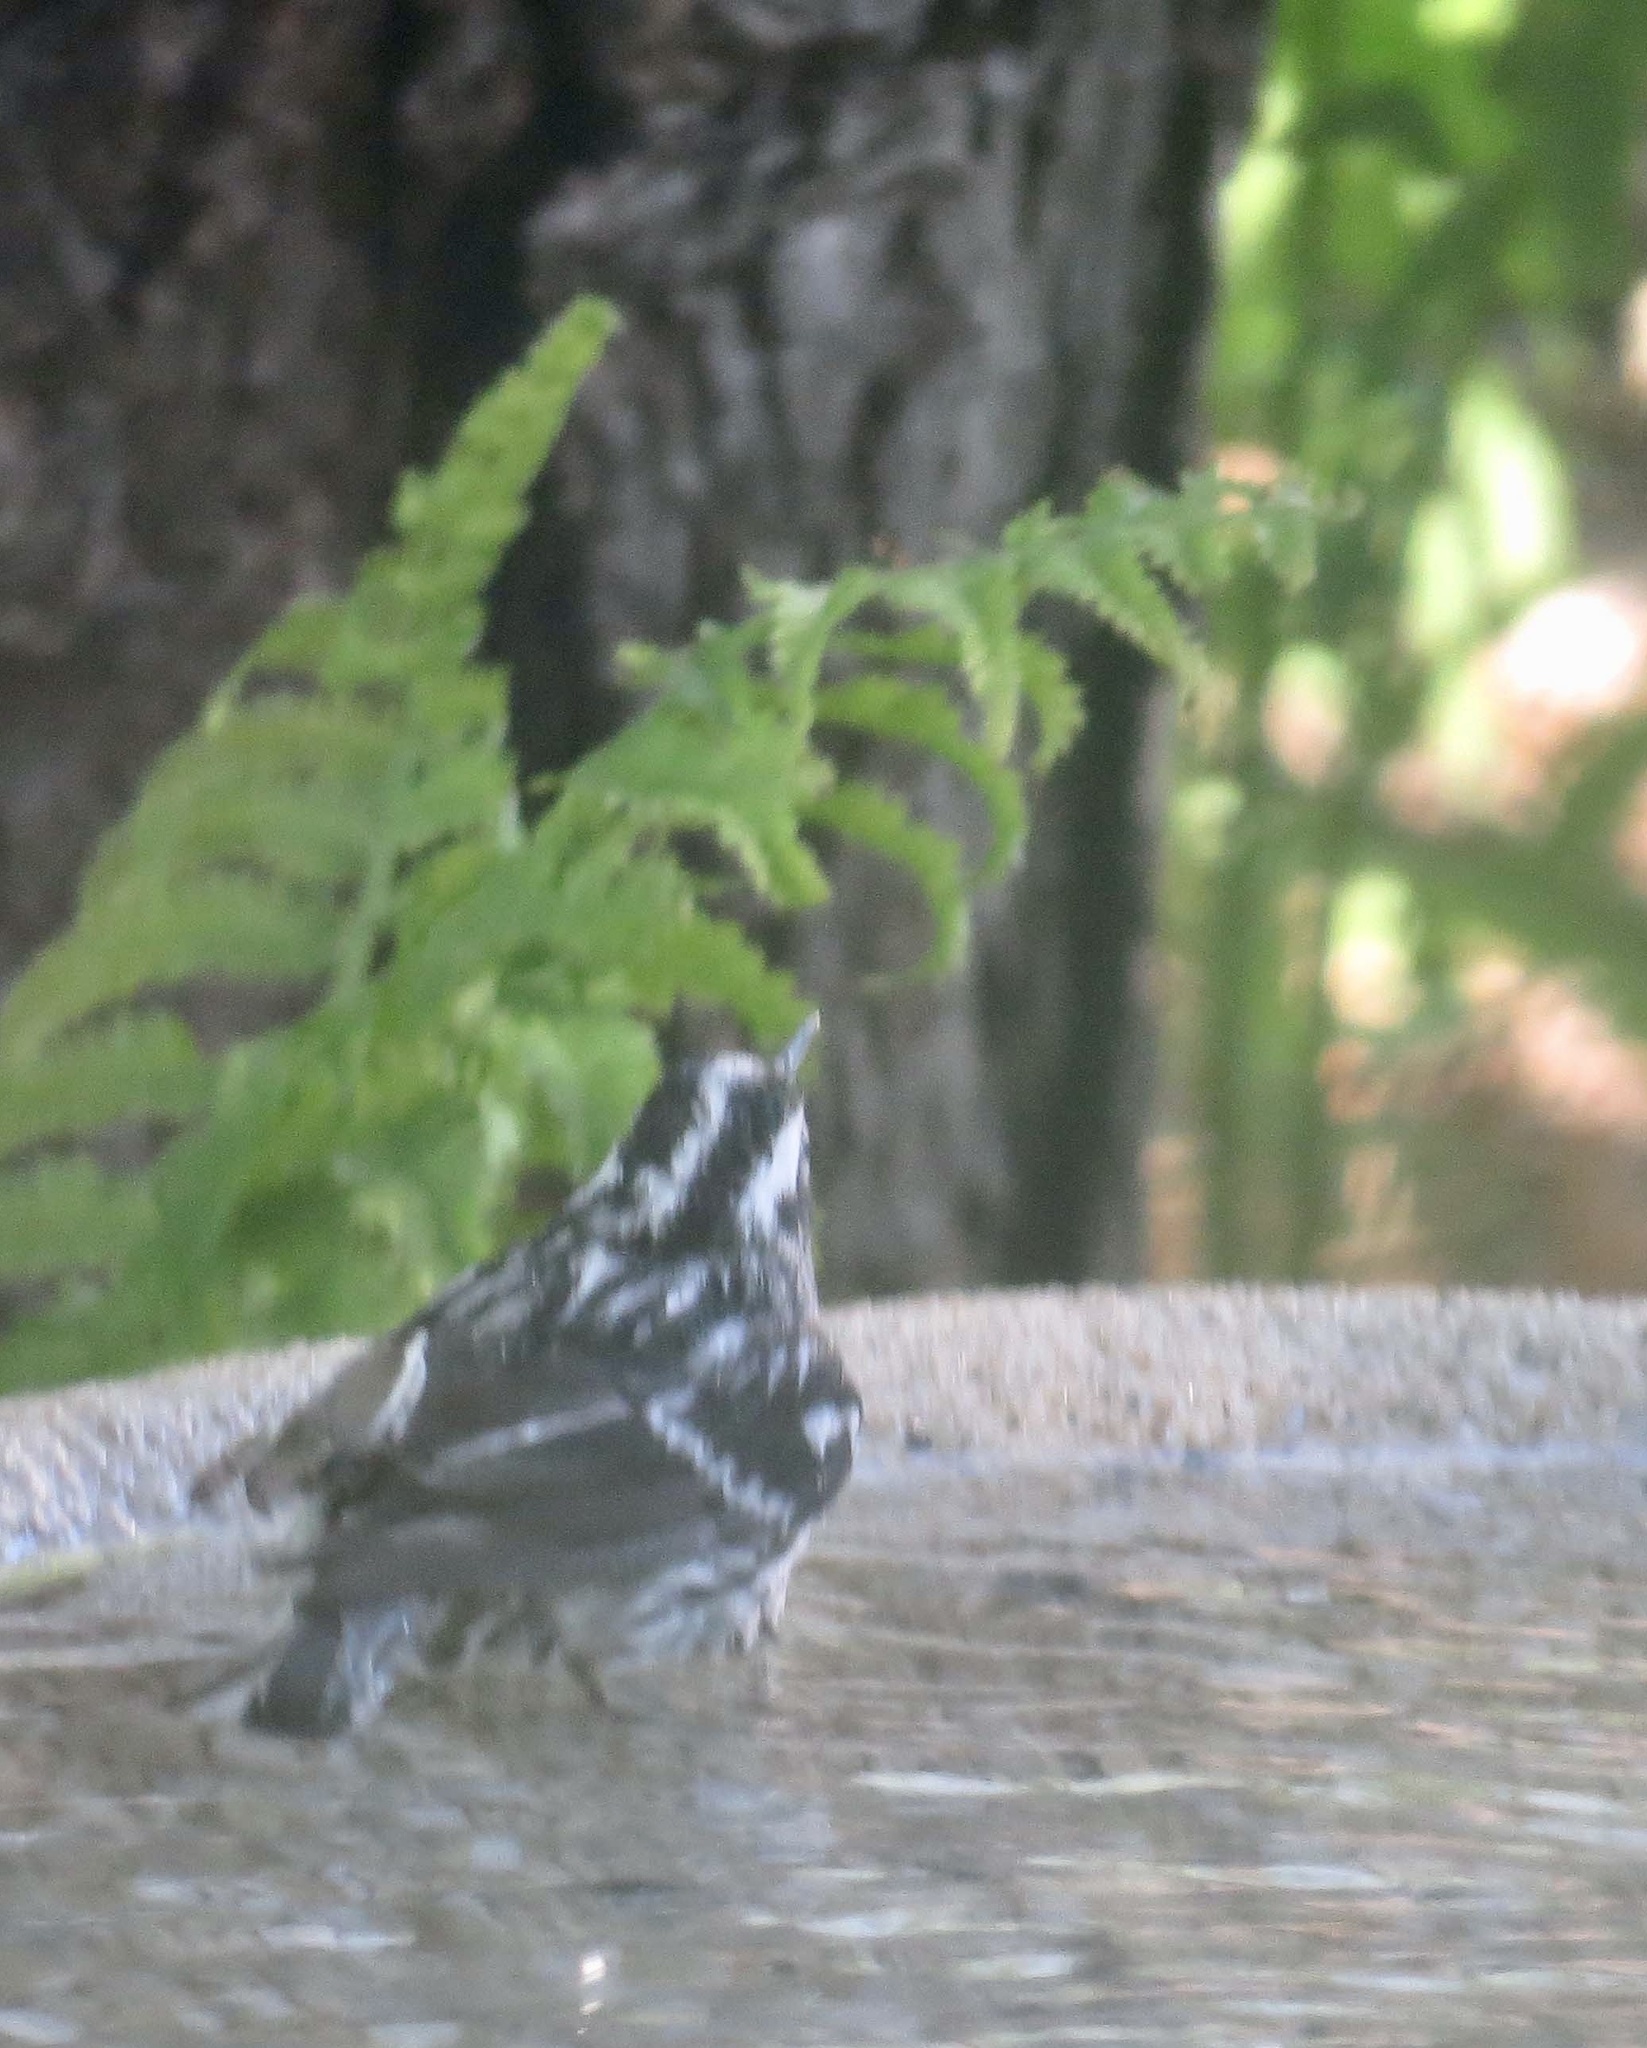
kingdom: Animalia
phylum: Chordata
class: Aves
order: Passeriformes
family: Parulidae
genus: Mniotilta
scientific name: Mniotilta varia
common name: Black-and-white warbler
